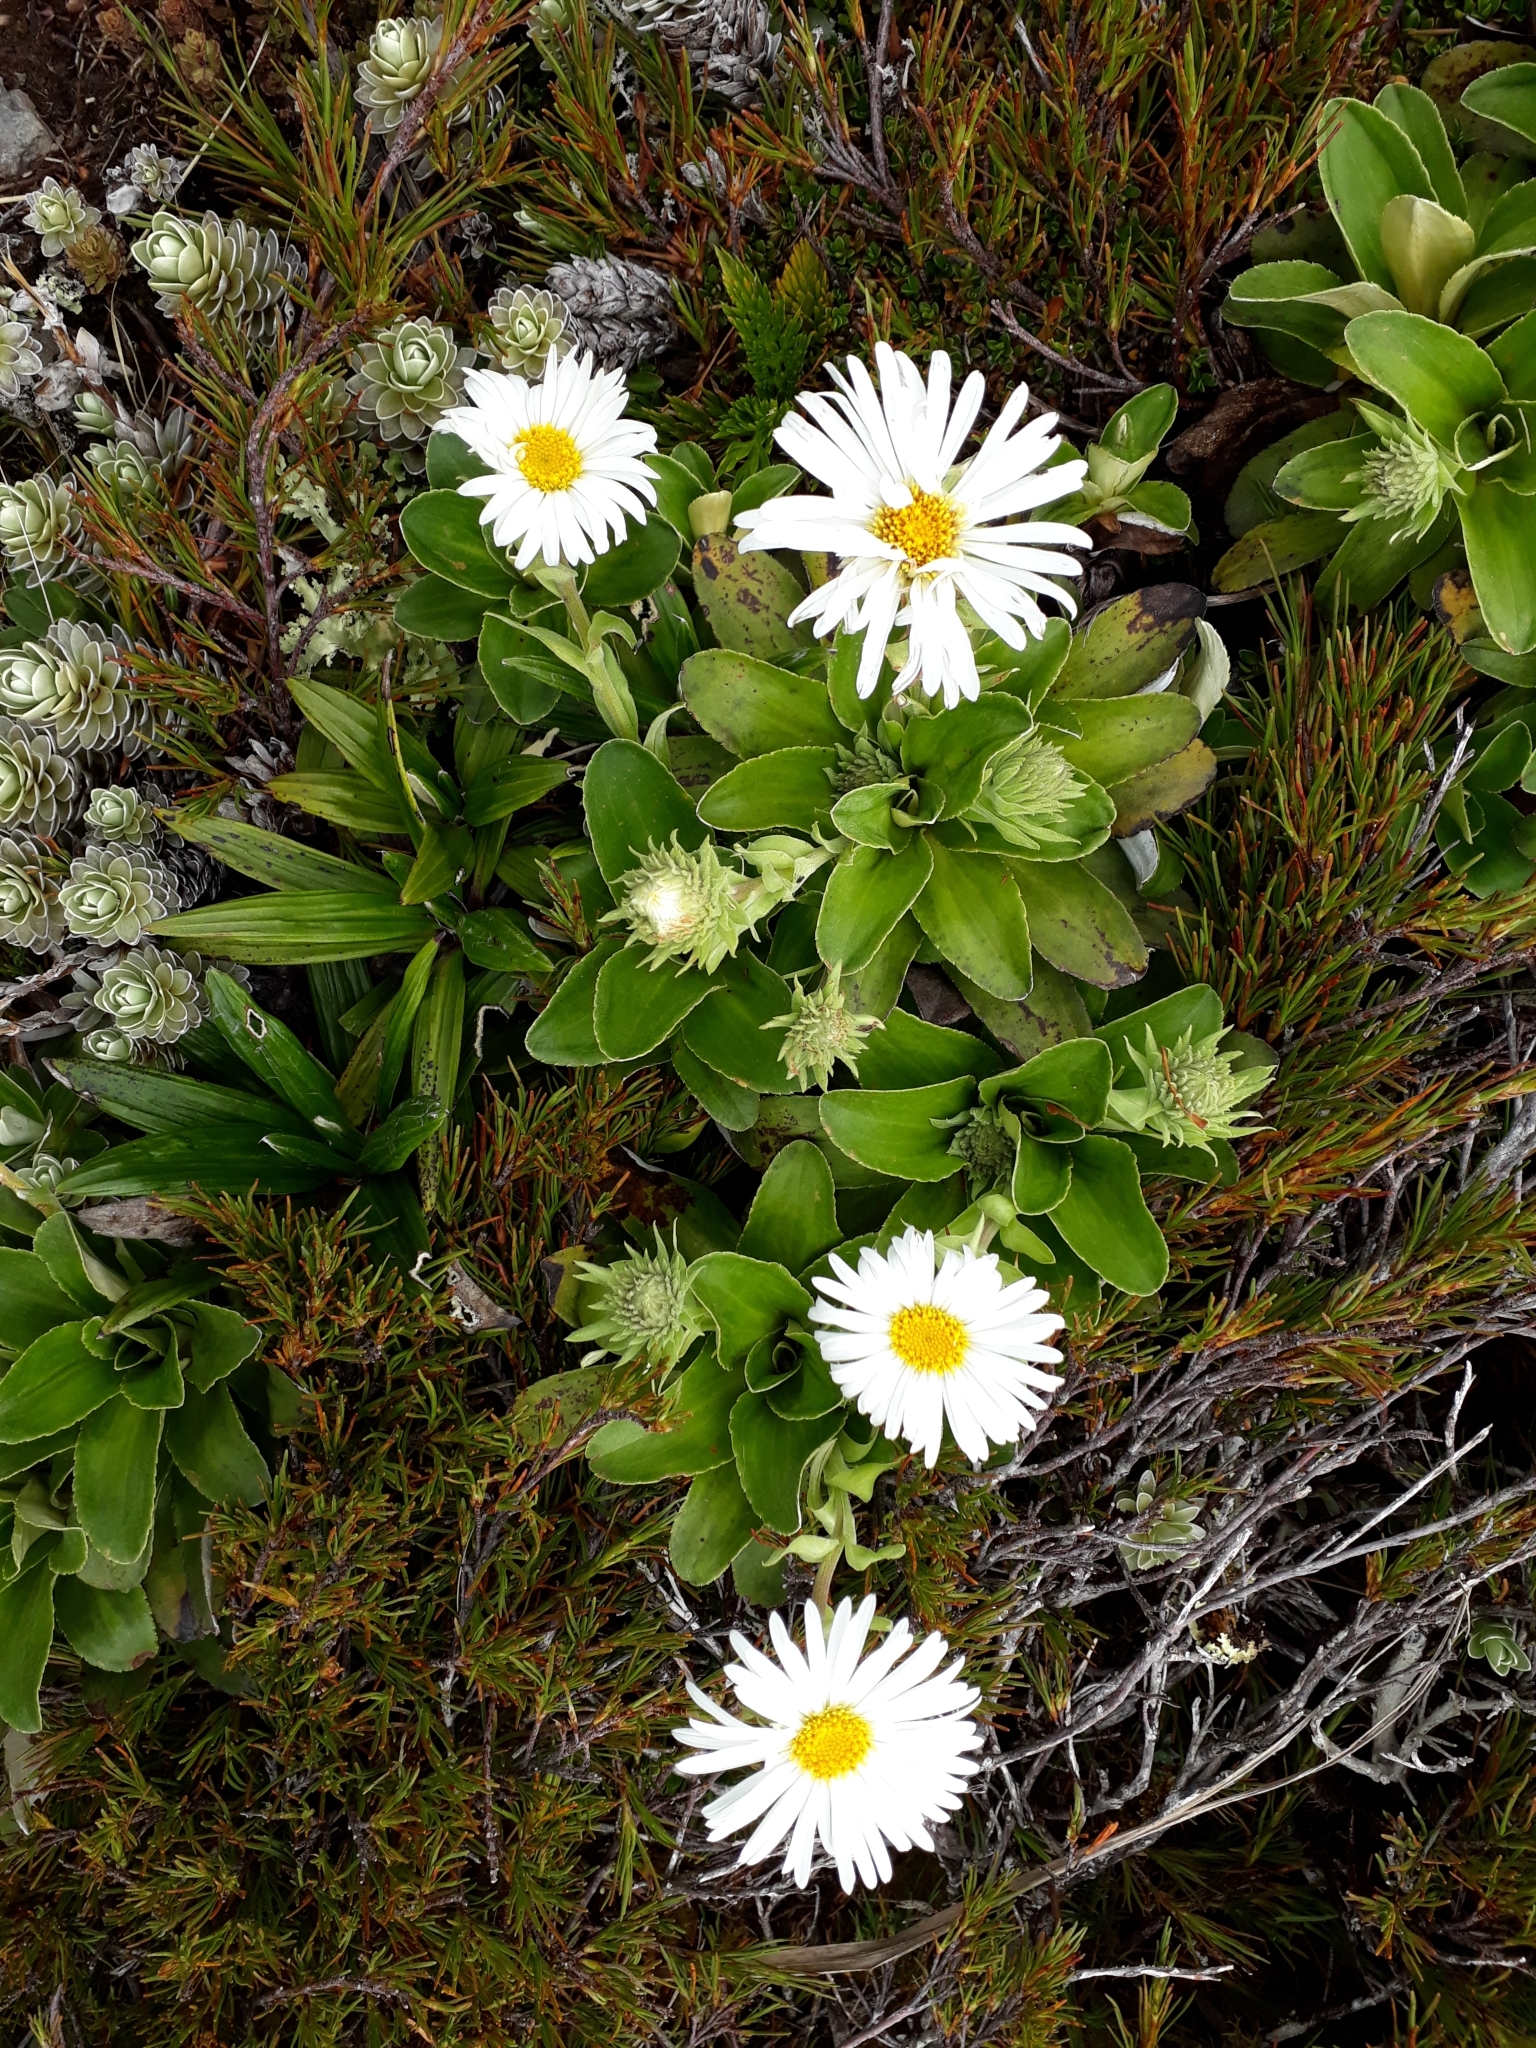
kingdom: Plantae
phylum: Tracheophyta
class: Magnoliopsida
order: Asterales
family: Asteraceae
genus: Celmisia
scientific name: Celmisia hieraciifolia
